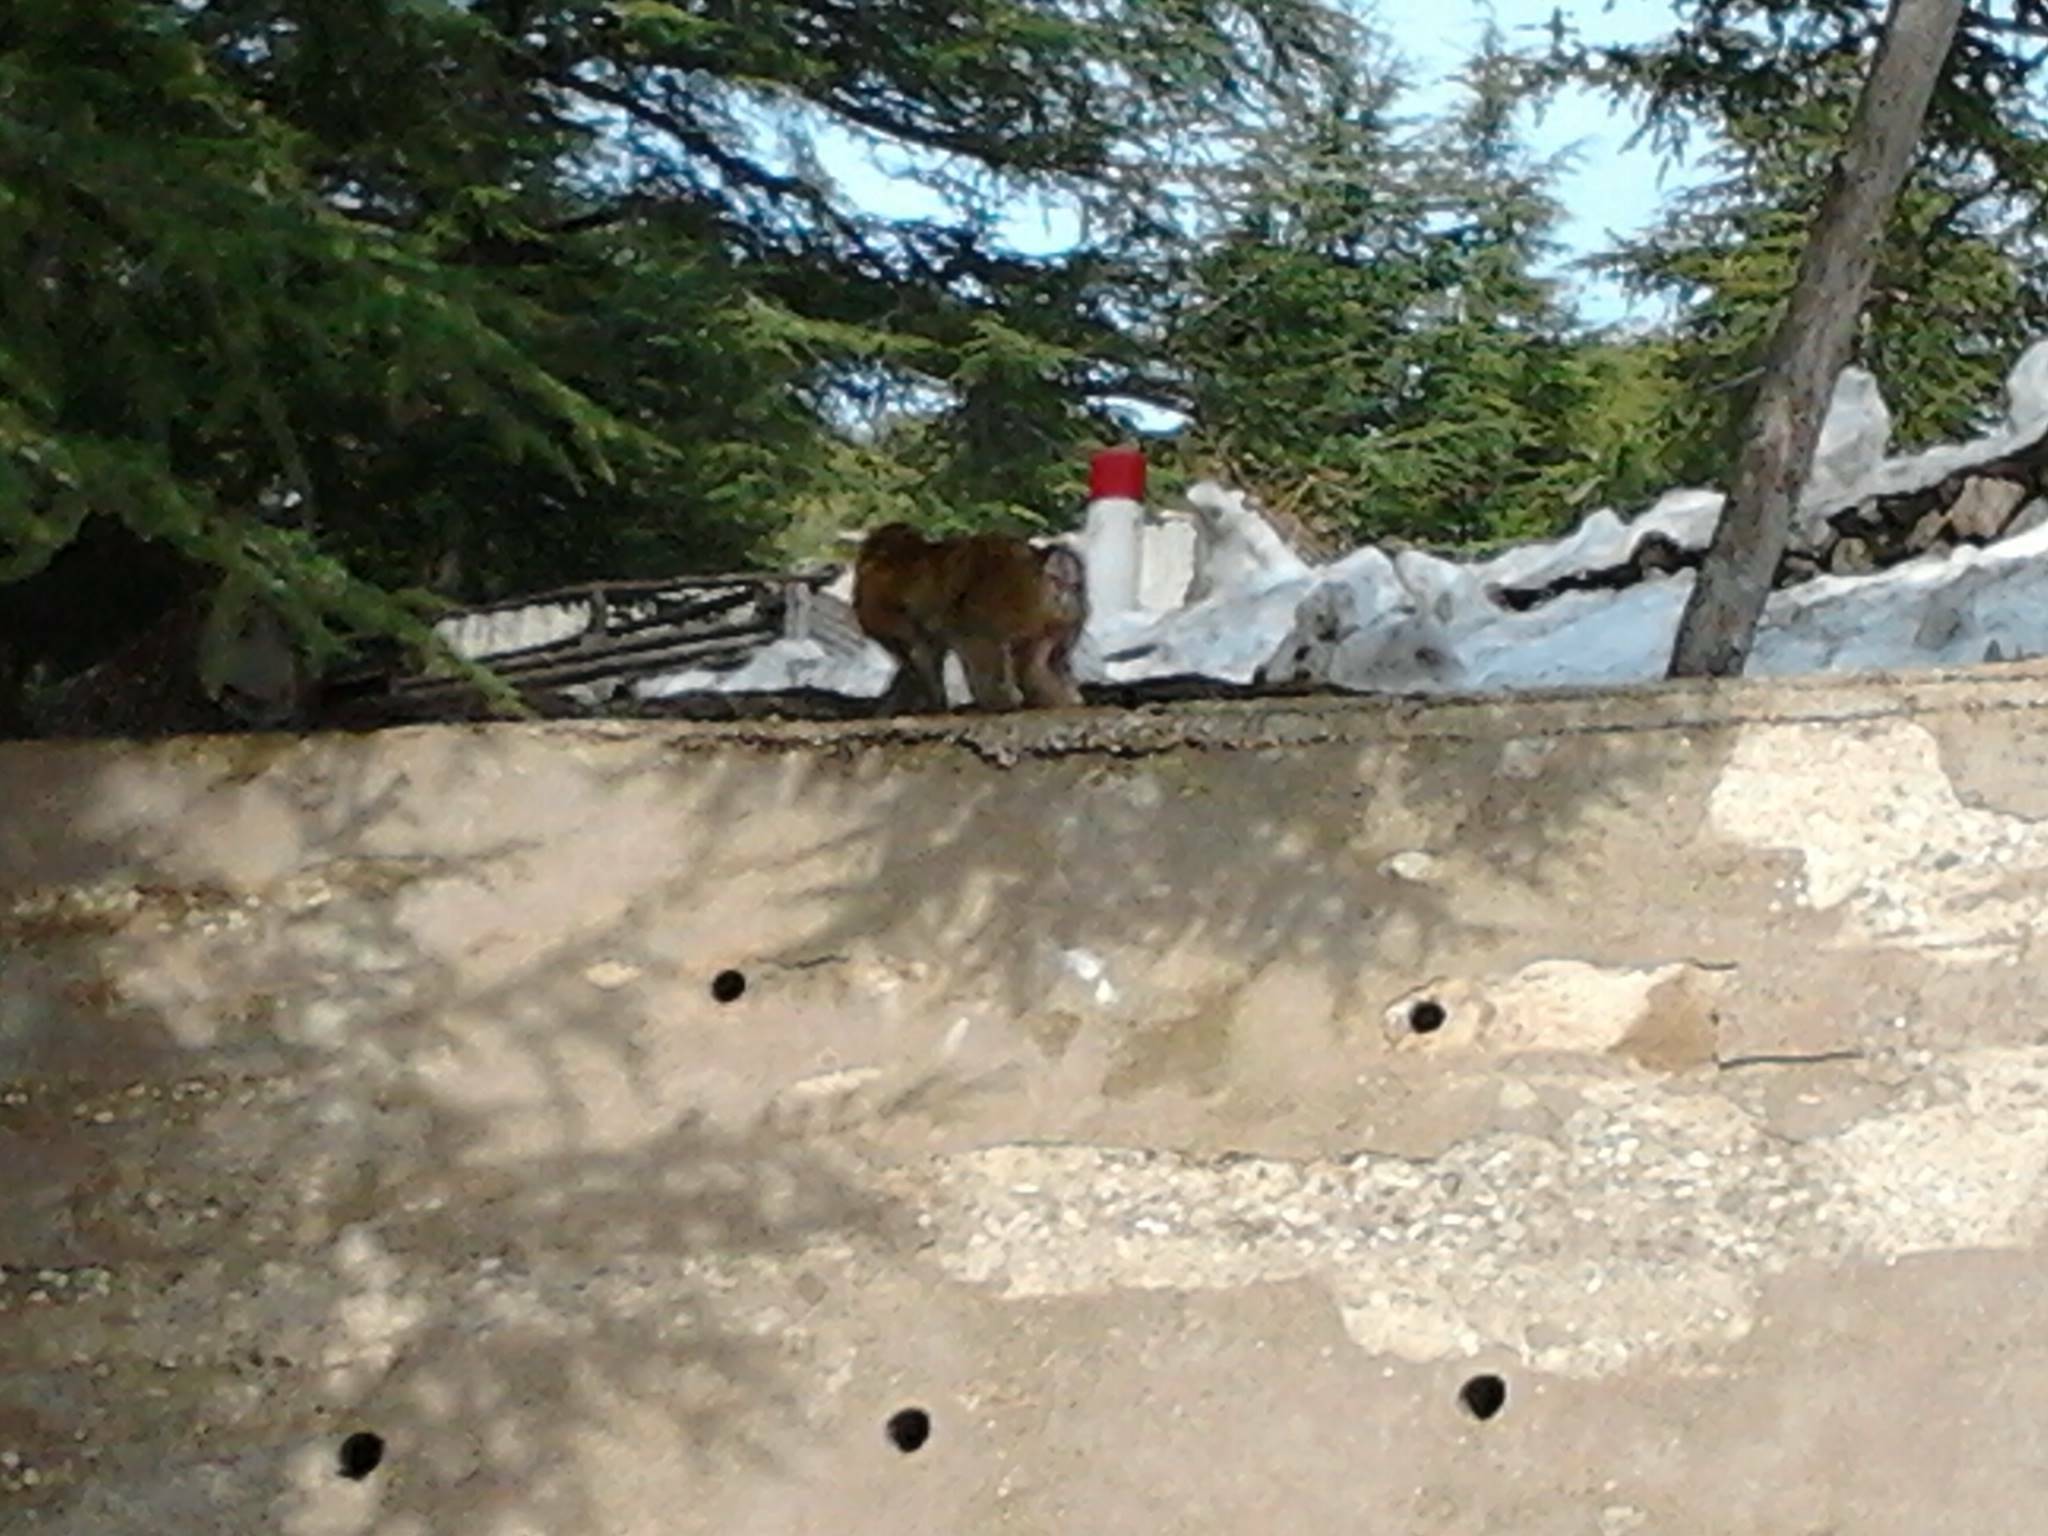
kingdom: Animalia
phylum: Chordata
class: Mammalia
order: Primates
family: Cercopithecidae
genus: Macaca
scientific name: Macaca sylvanus
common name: Barbary macaque
